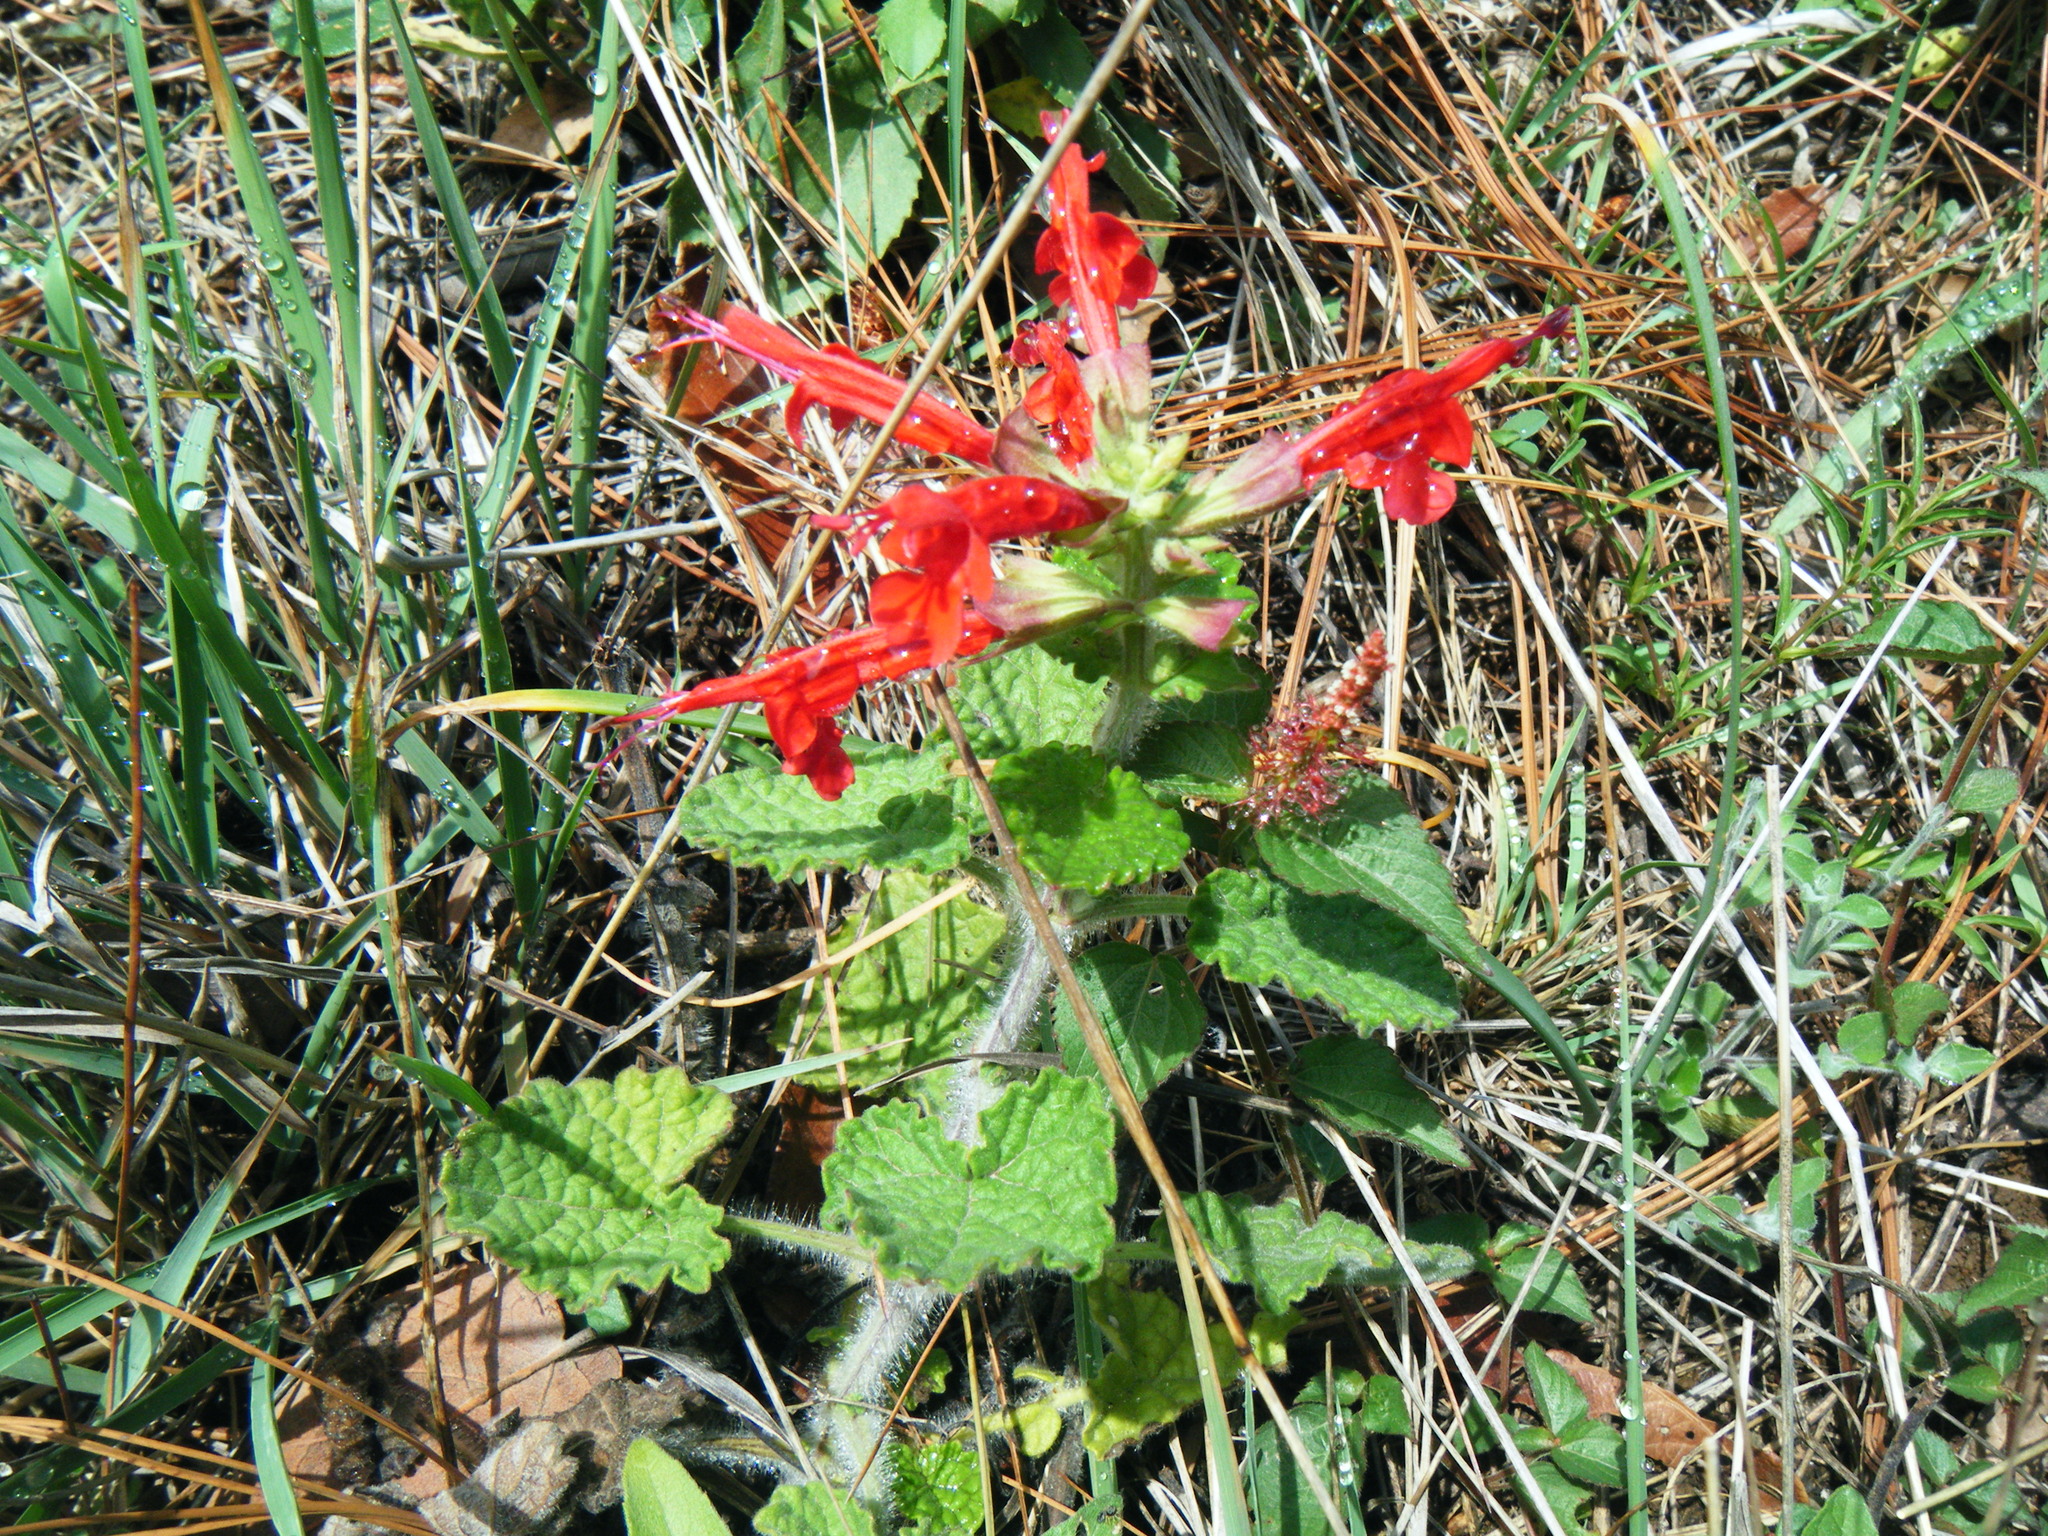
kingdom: Plantae
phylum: Tracheophyta
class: Magnoliopsida
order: Lamiales
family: Lamiaceae
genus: Salvia
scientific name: Salvia roemeriana
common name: Cedar sage
